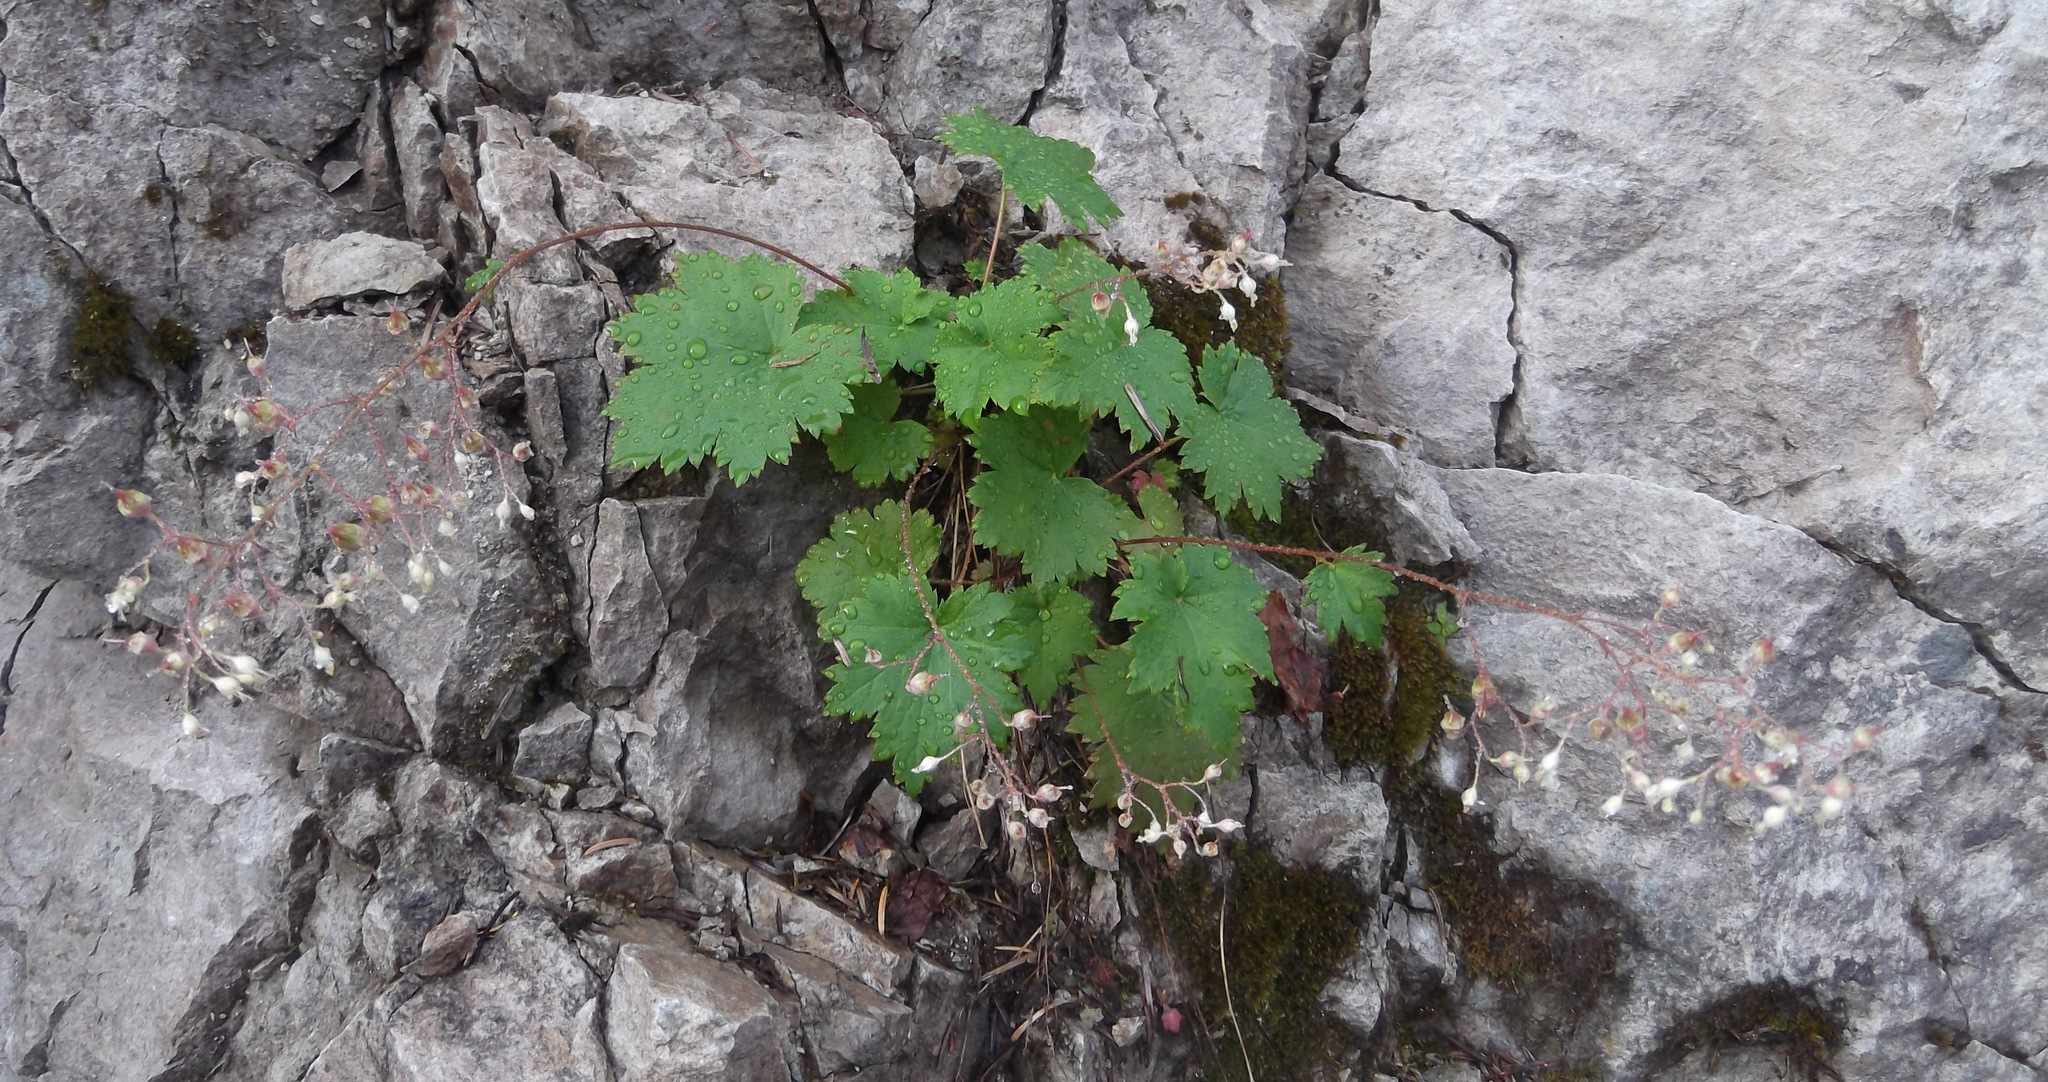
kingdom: Plantae
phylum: Tracheophyta
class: Magnoliopsida
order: Saxifragales
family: Saxifragaceae
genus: Heuchera
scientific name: Heuchera glabra
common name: Alpine alumroot
